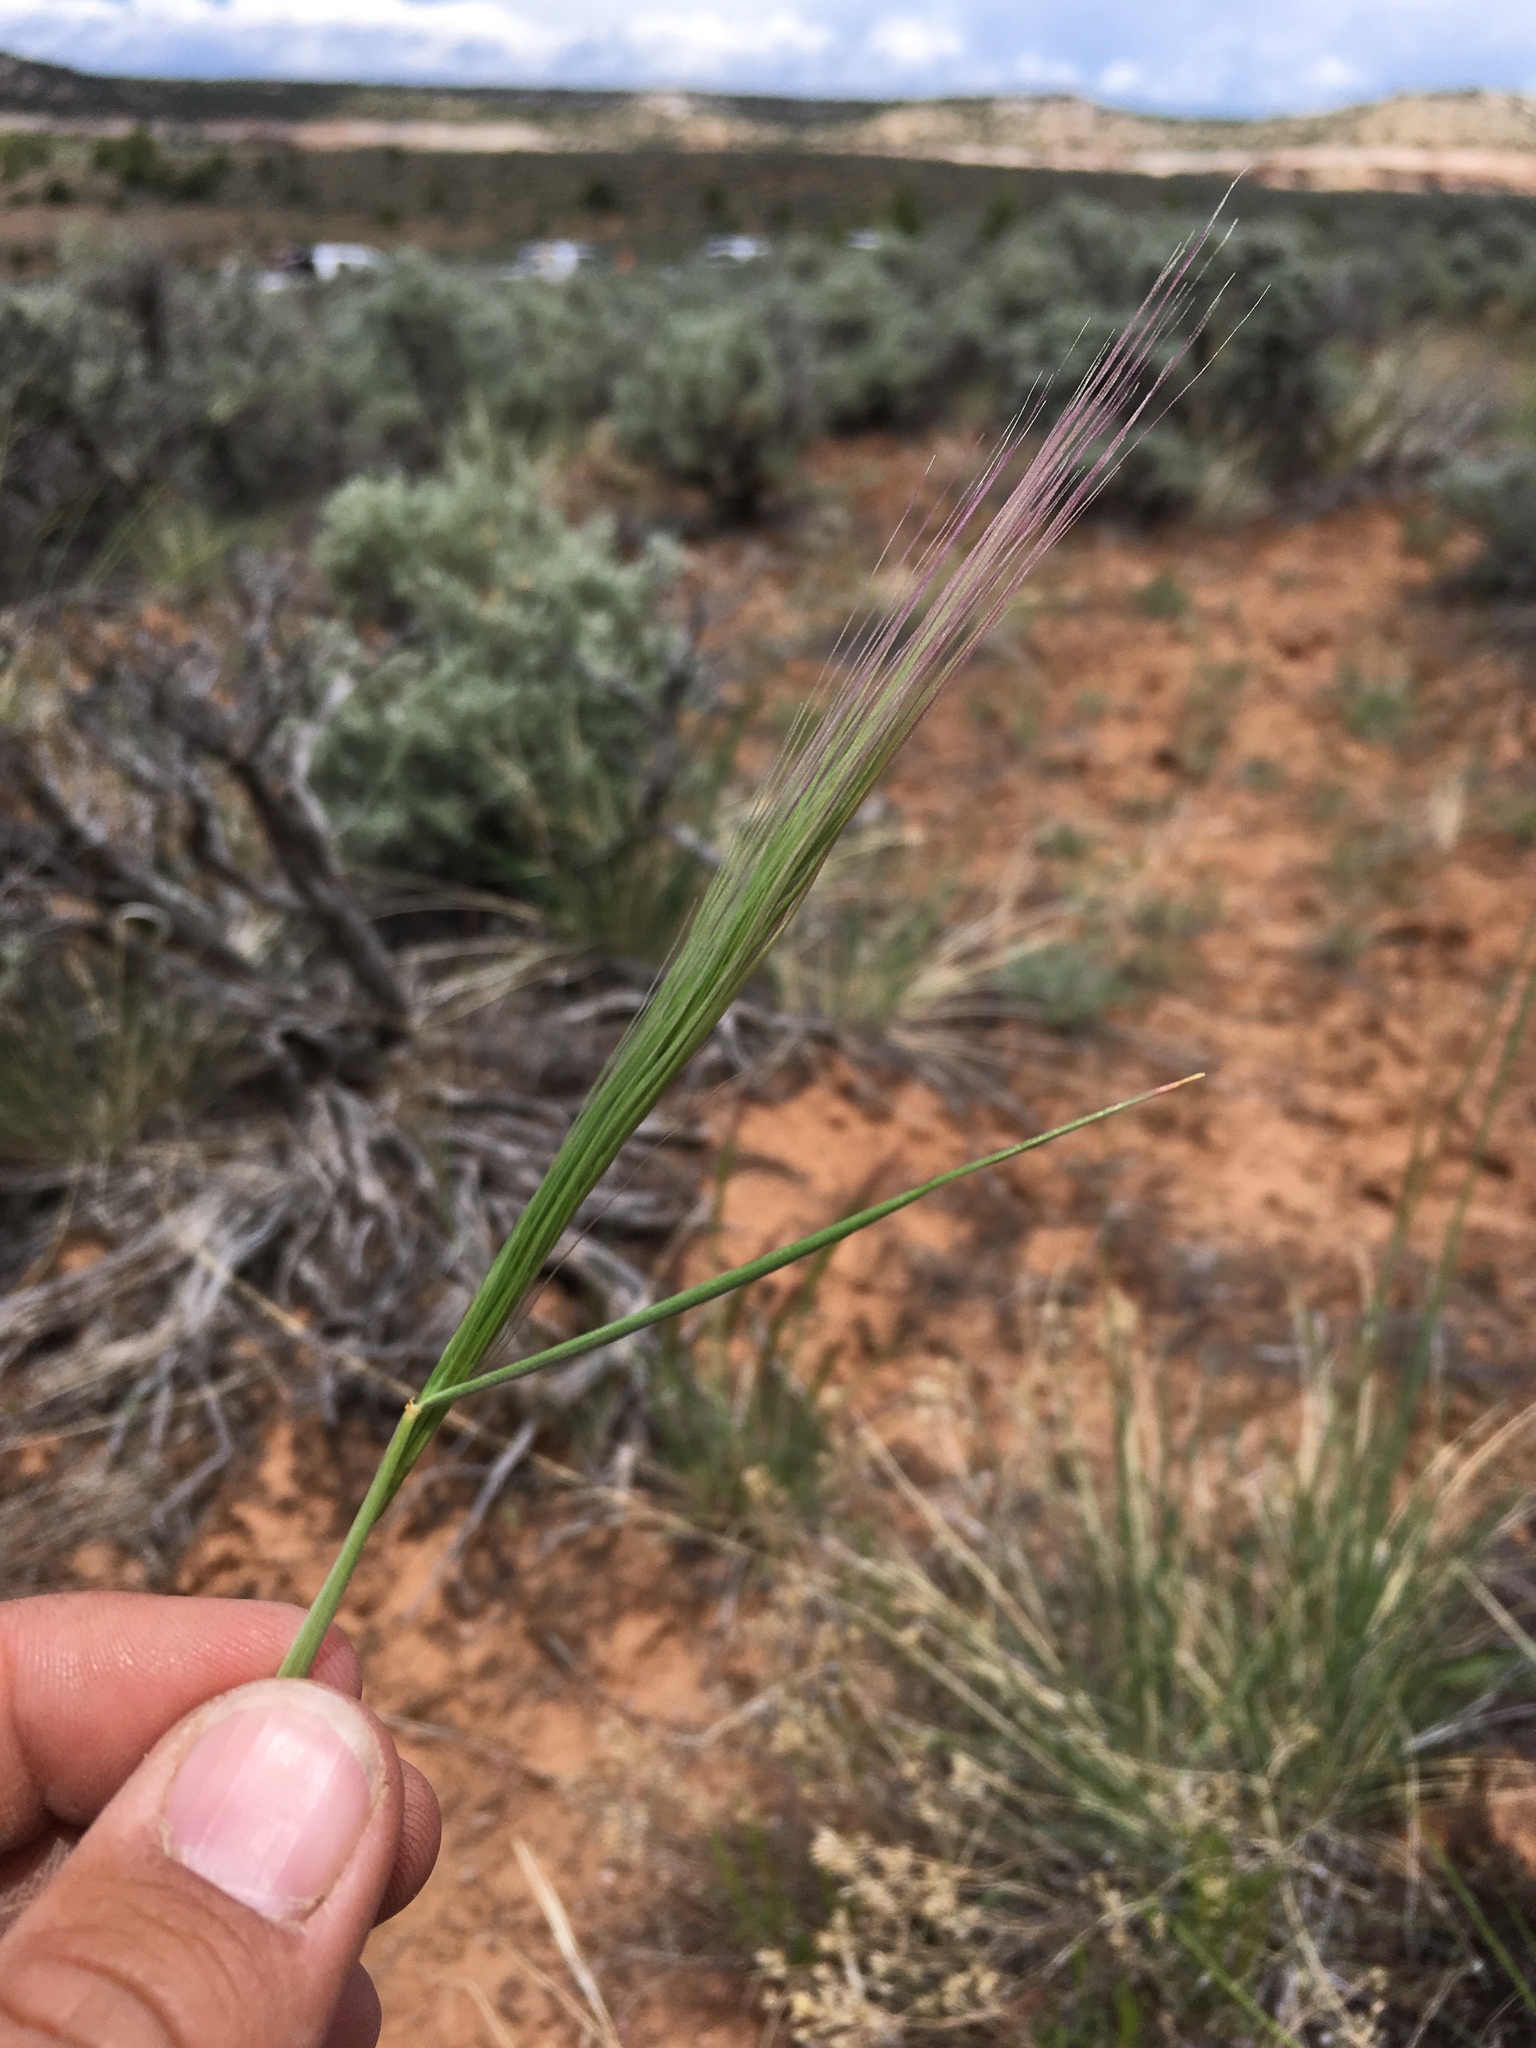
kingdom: Plantae
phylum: Tracheophyta
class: Liliopsida
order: Poales
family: Poaceae
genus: Elymus
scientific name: Elymus elymoides
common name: Bottlebrush squirreltail
